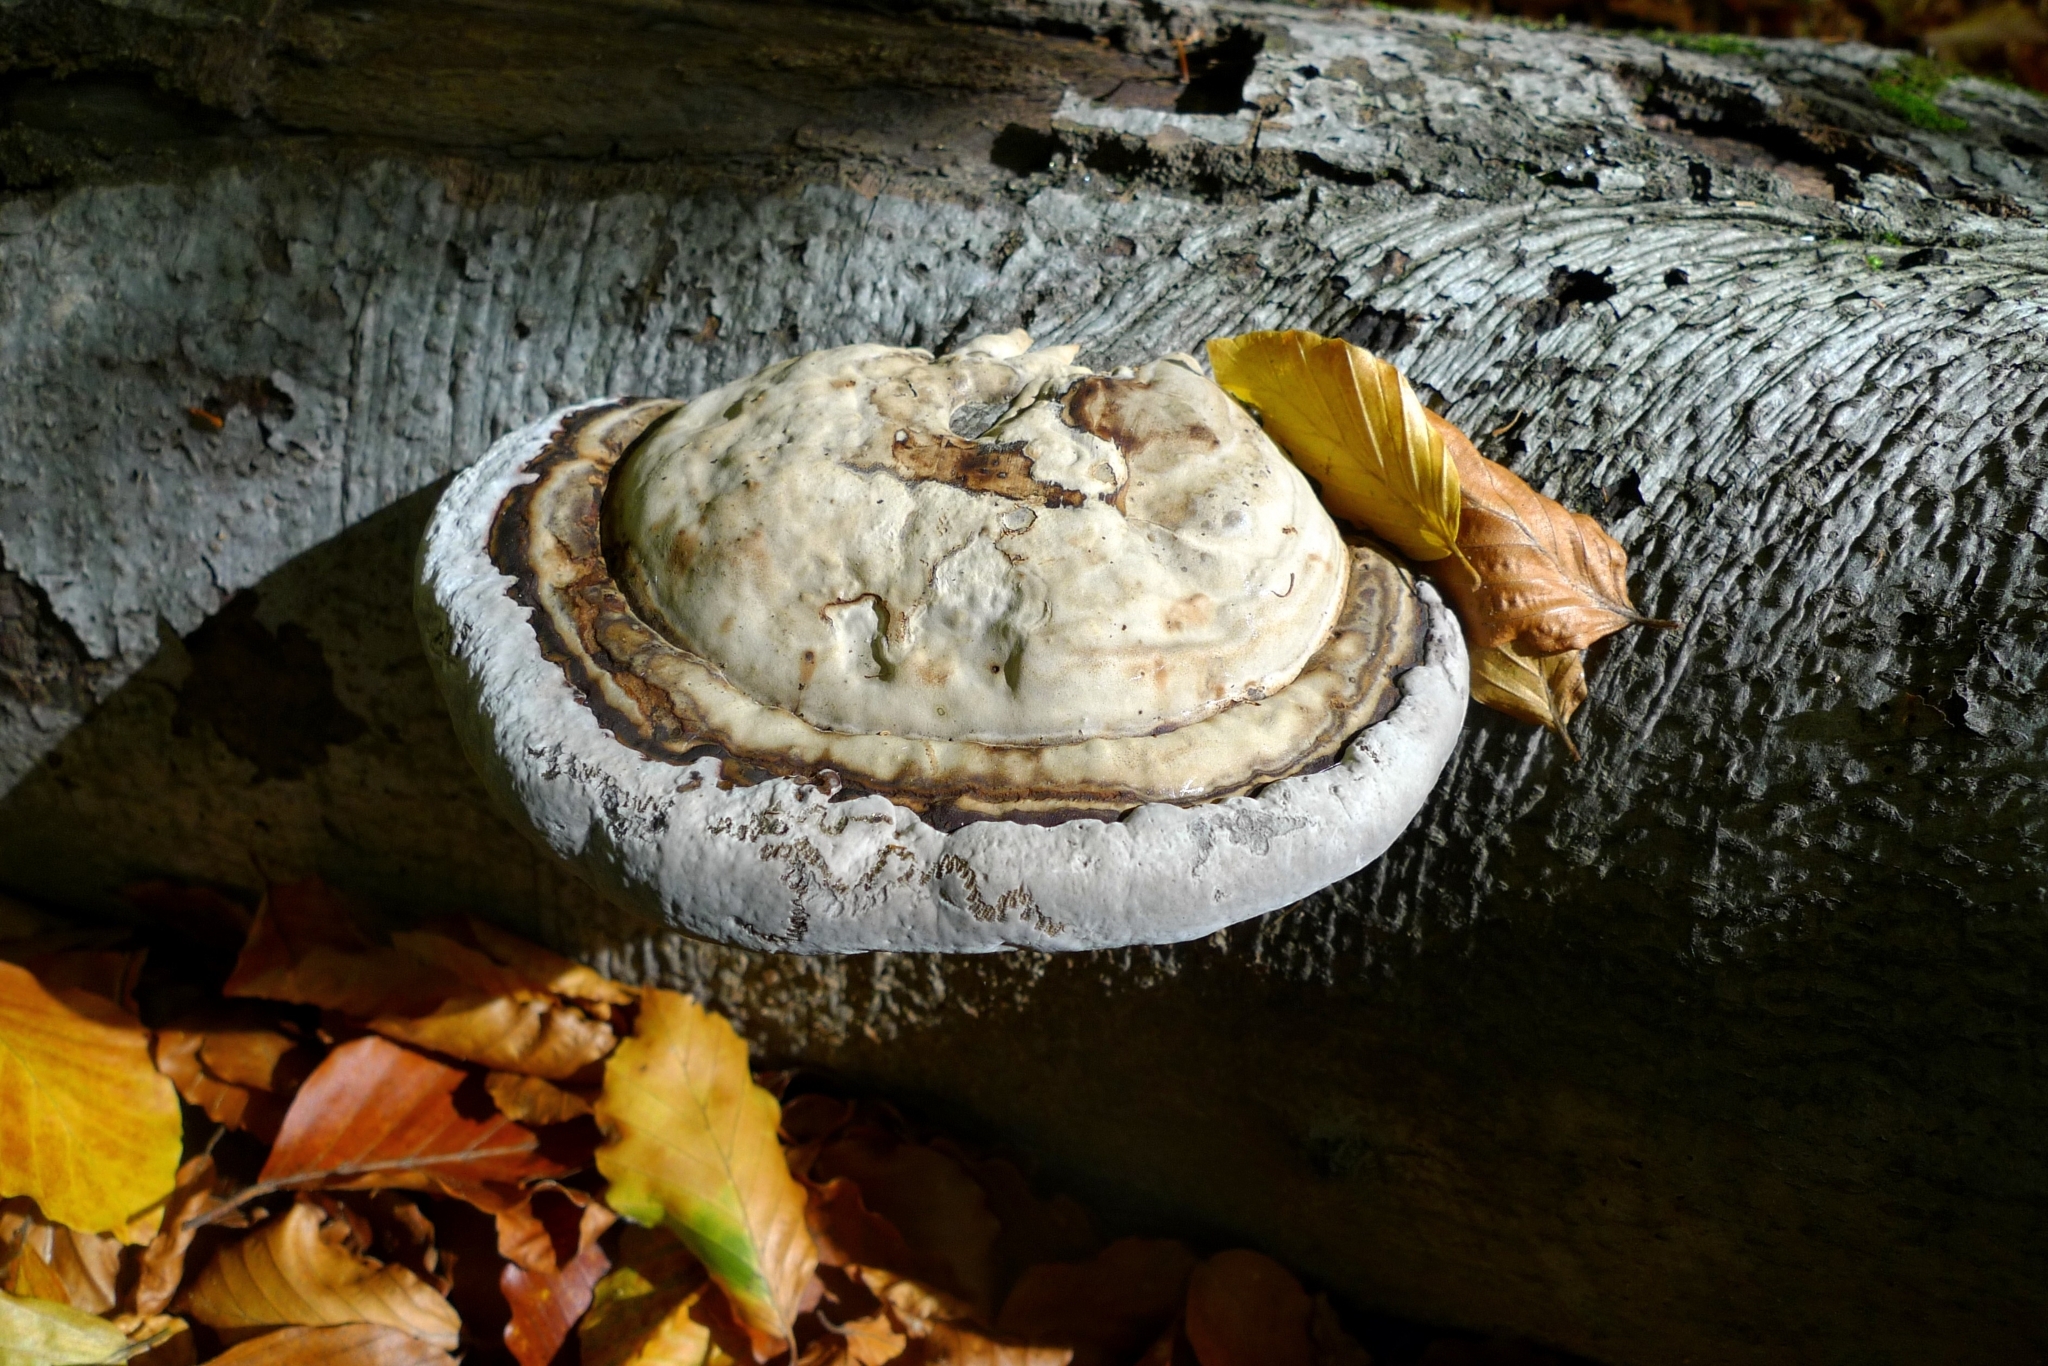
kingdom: Fungi
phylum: Basidiomycota
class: Agaricomycetes
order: Polyporales
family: Polyporaceae
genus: Fomes
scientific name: Fomes fomentarius
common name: Hoof fungus
